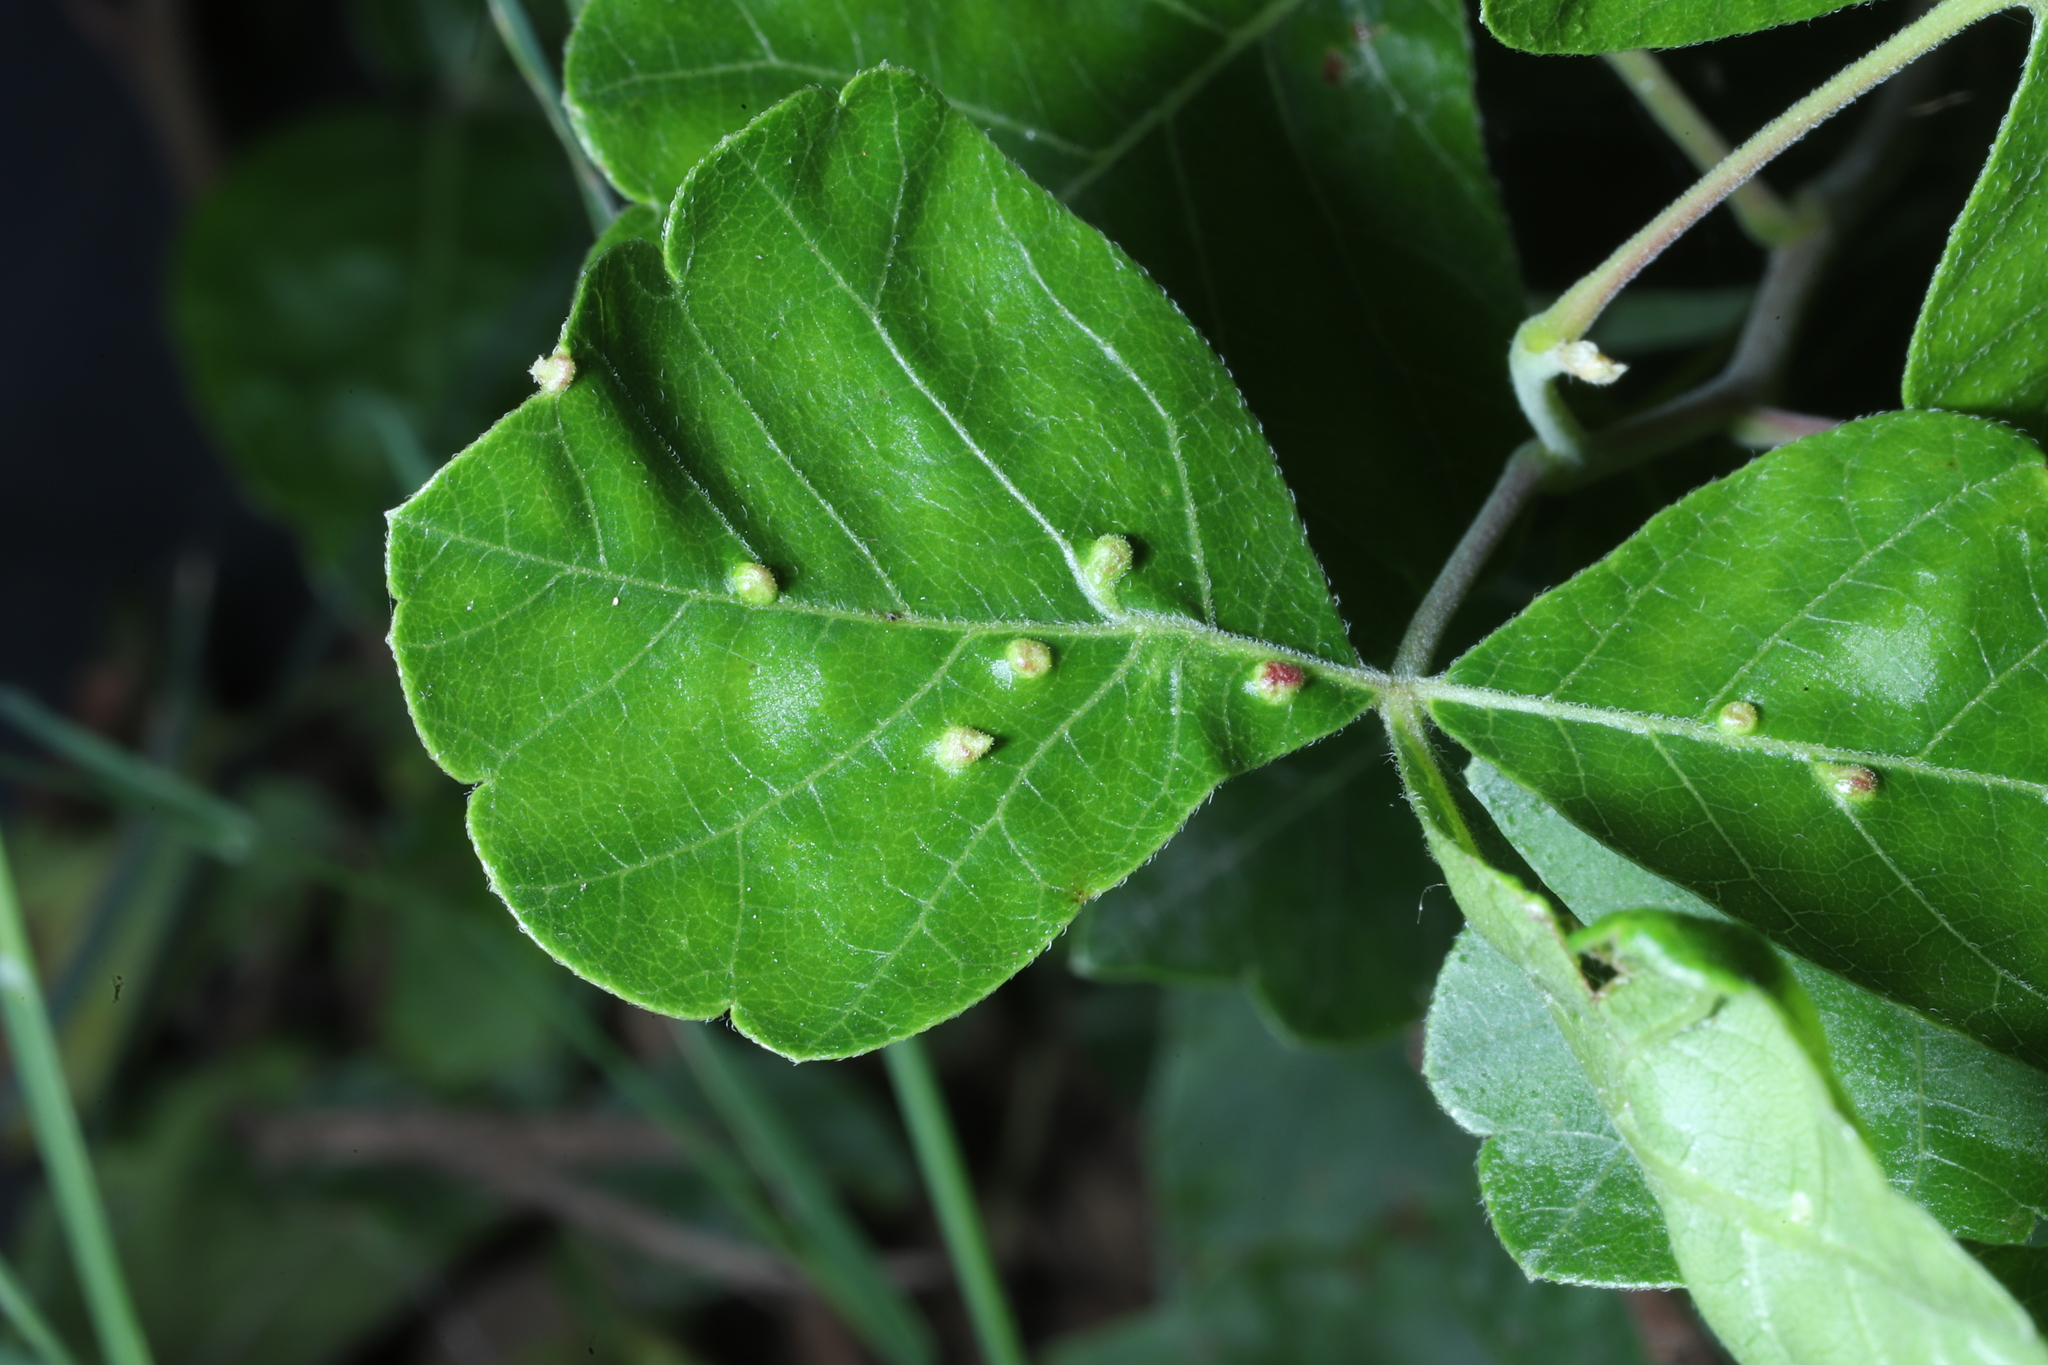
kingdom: Animalia
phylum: Arthropoda
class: Arachnida
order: Trombidiformes
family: Eriophyidae
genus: Aculops
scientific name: Aculops
